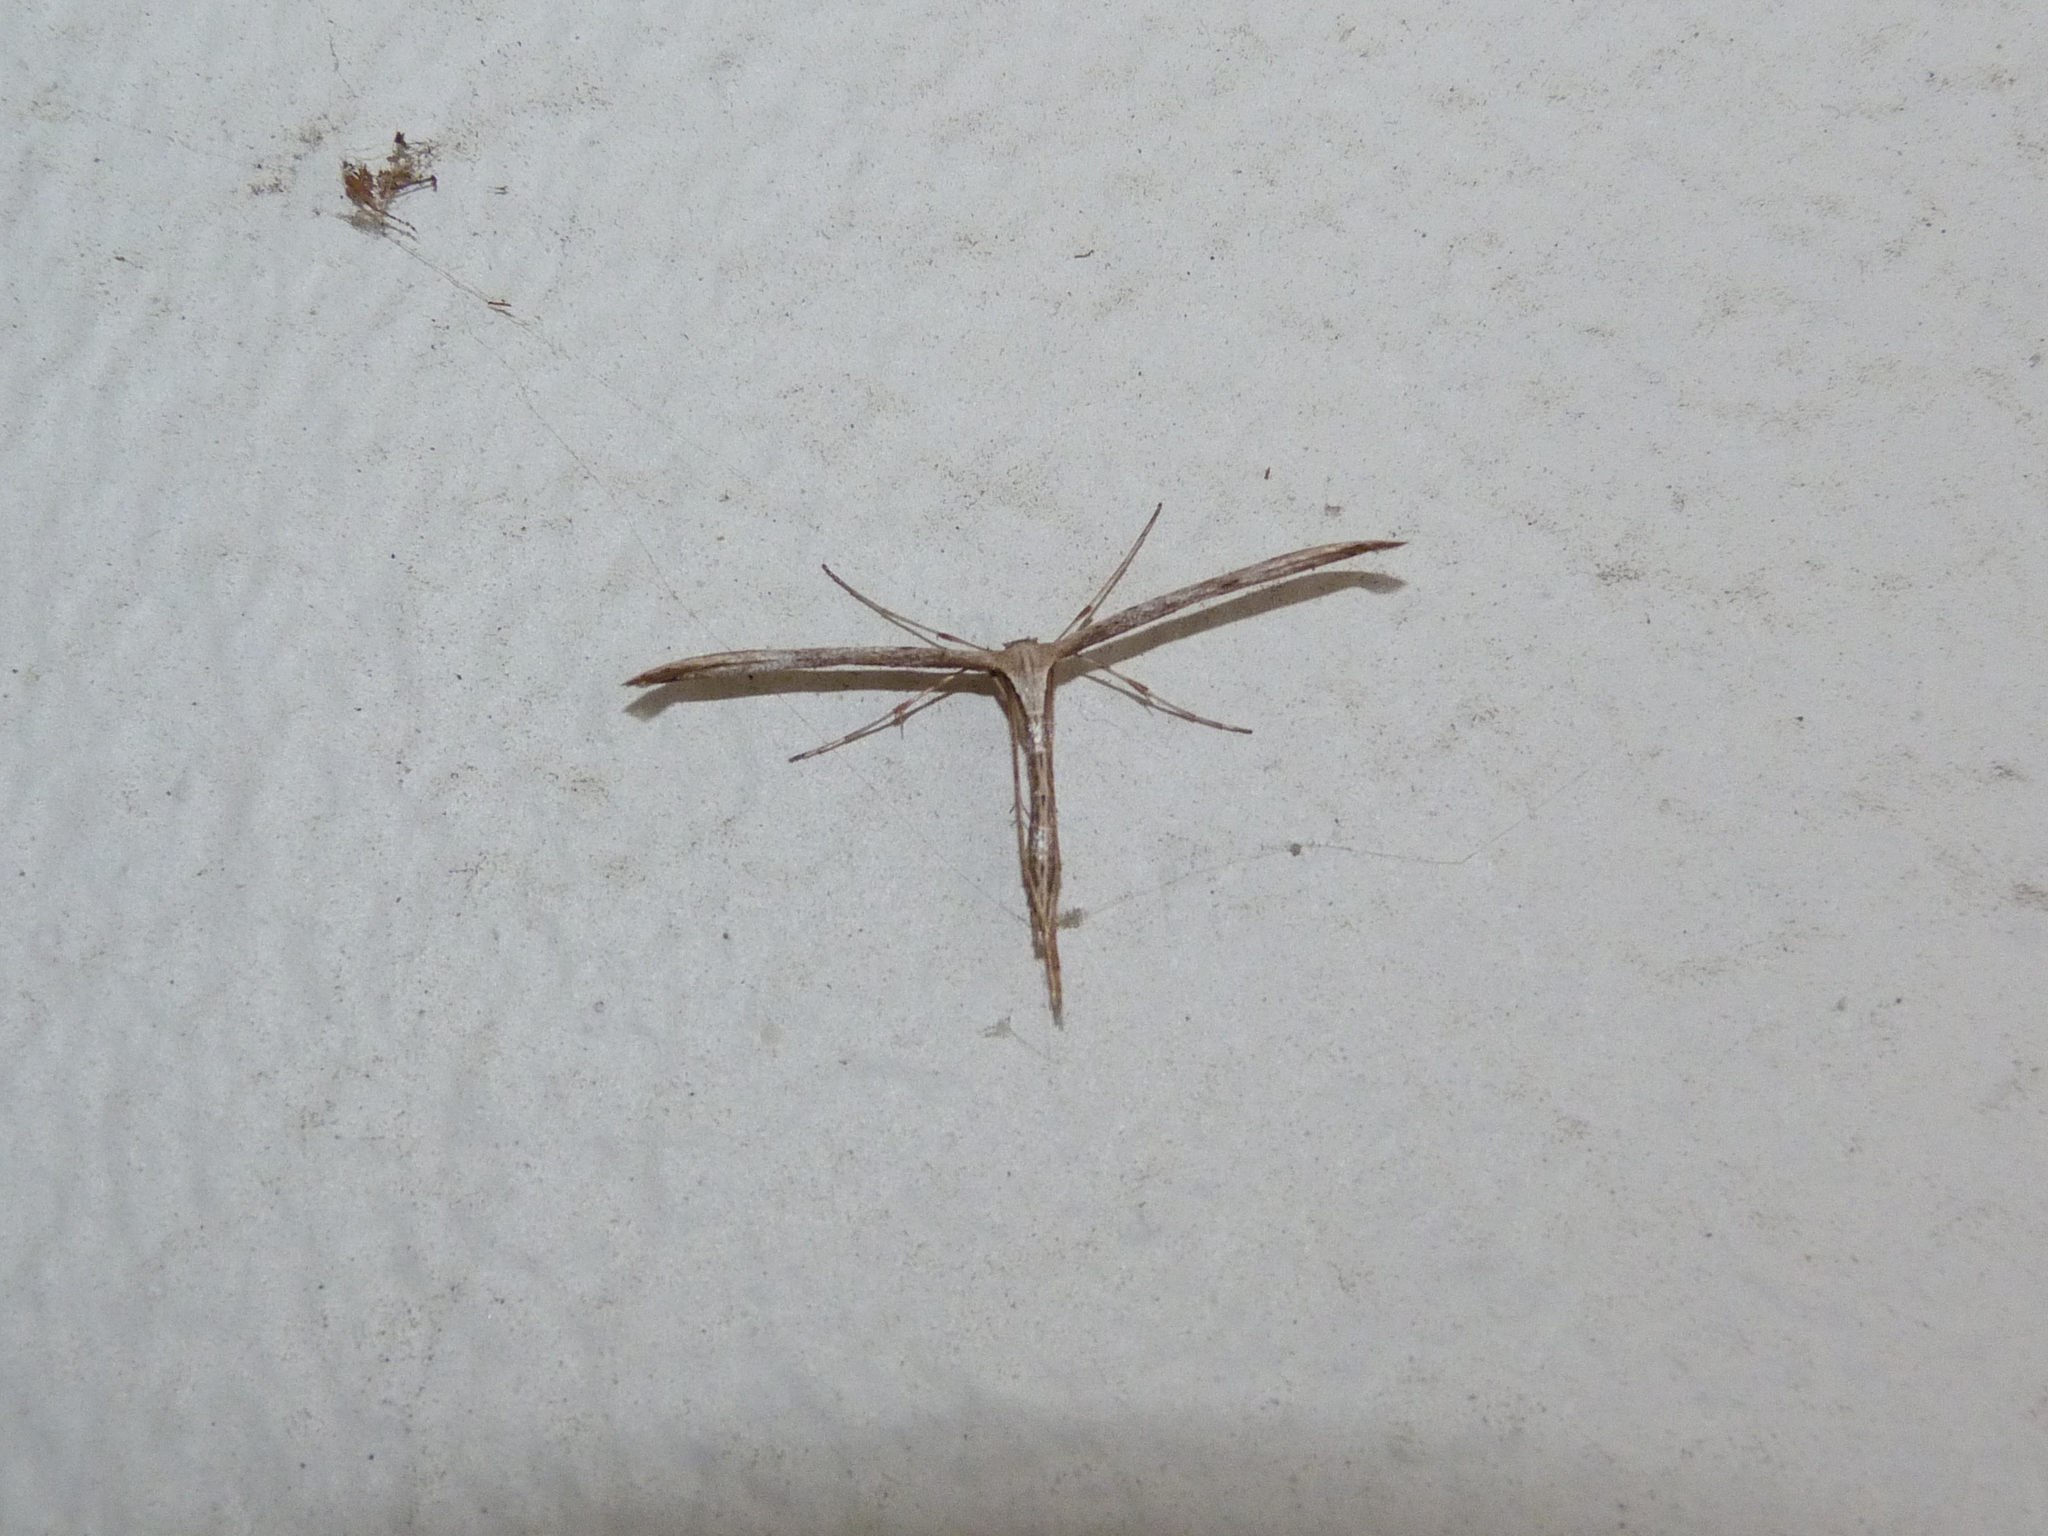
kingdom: Animalia
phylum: Arthropoda
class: Insecta
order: Lepidoptera
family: Pterophoridae
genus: Emmelina
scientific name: Emmelina monodactyla
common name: Common plume
